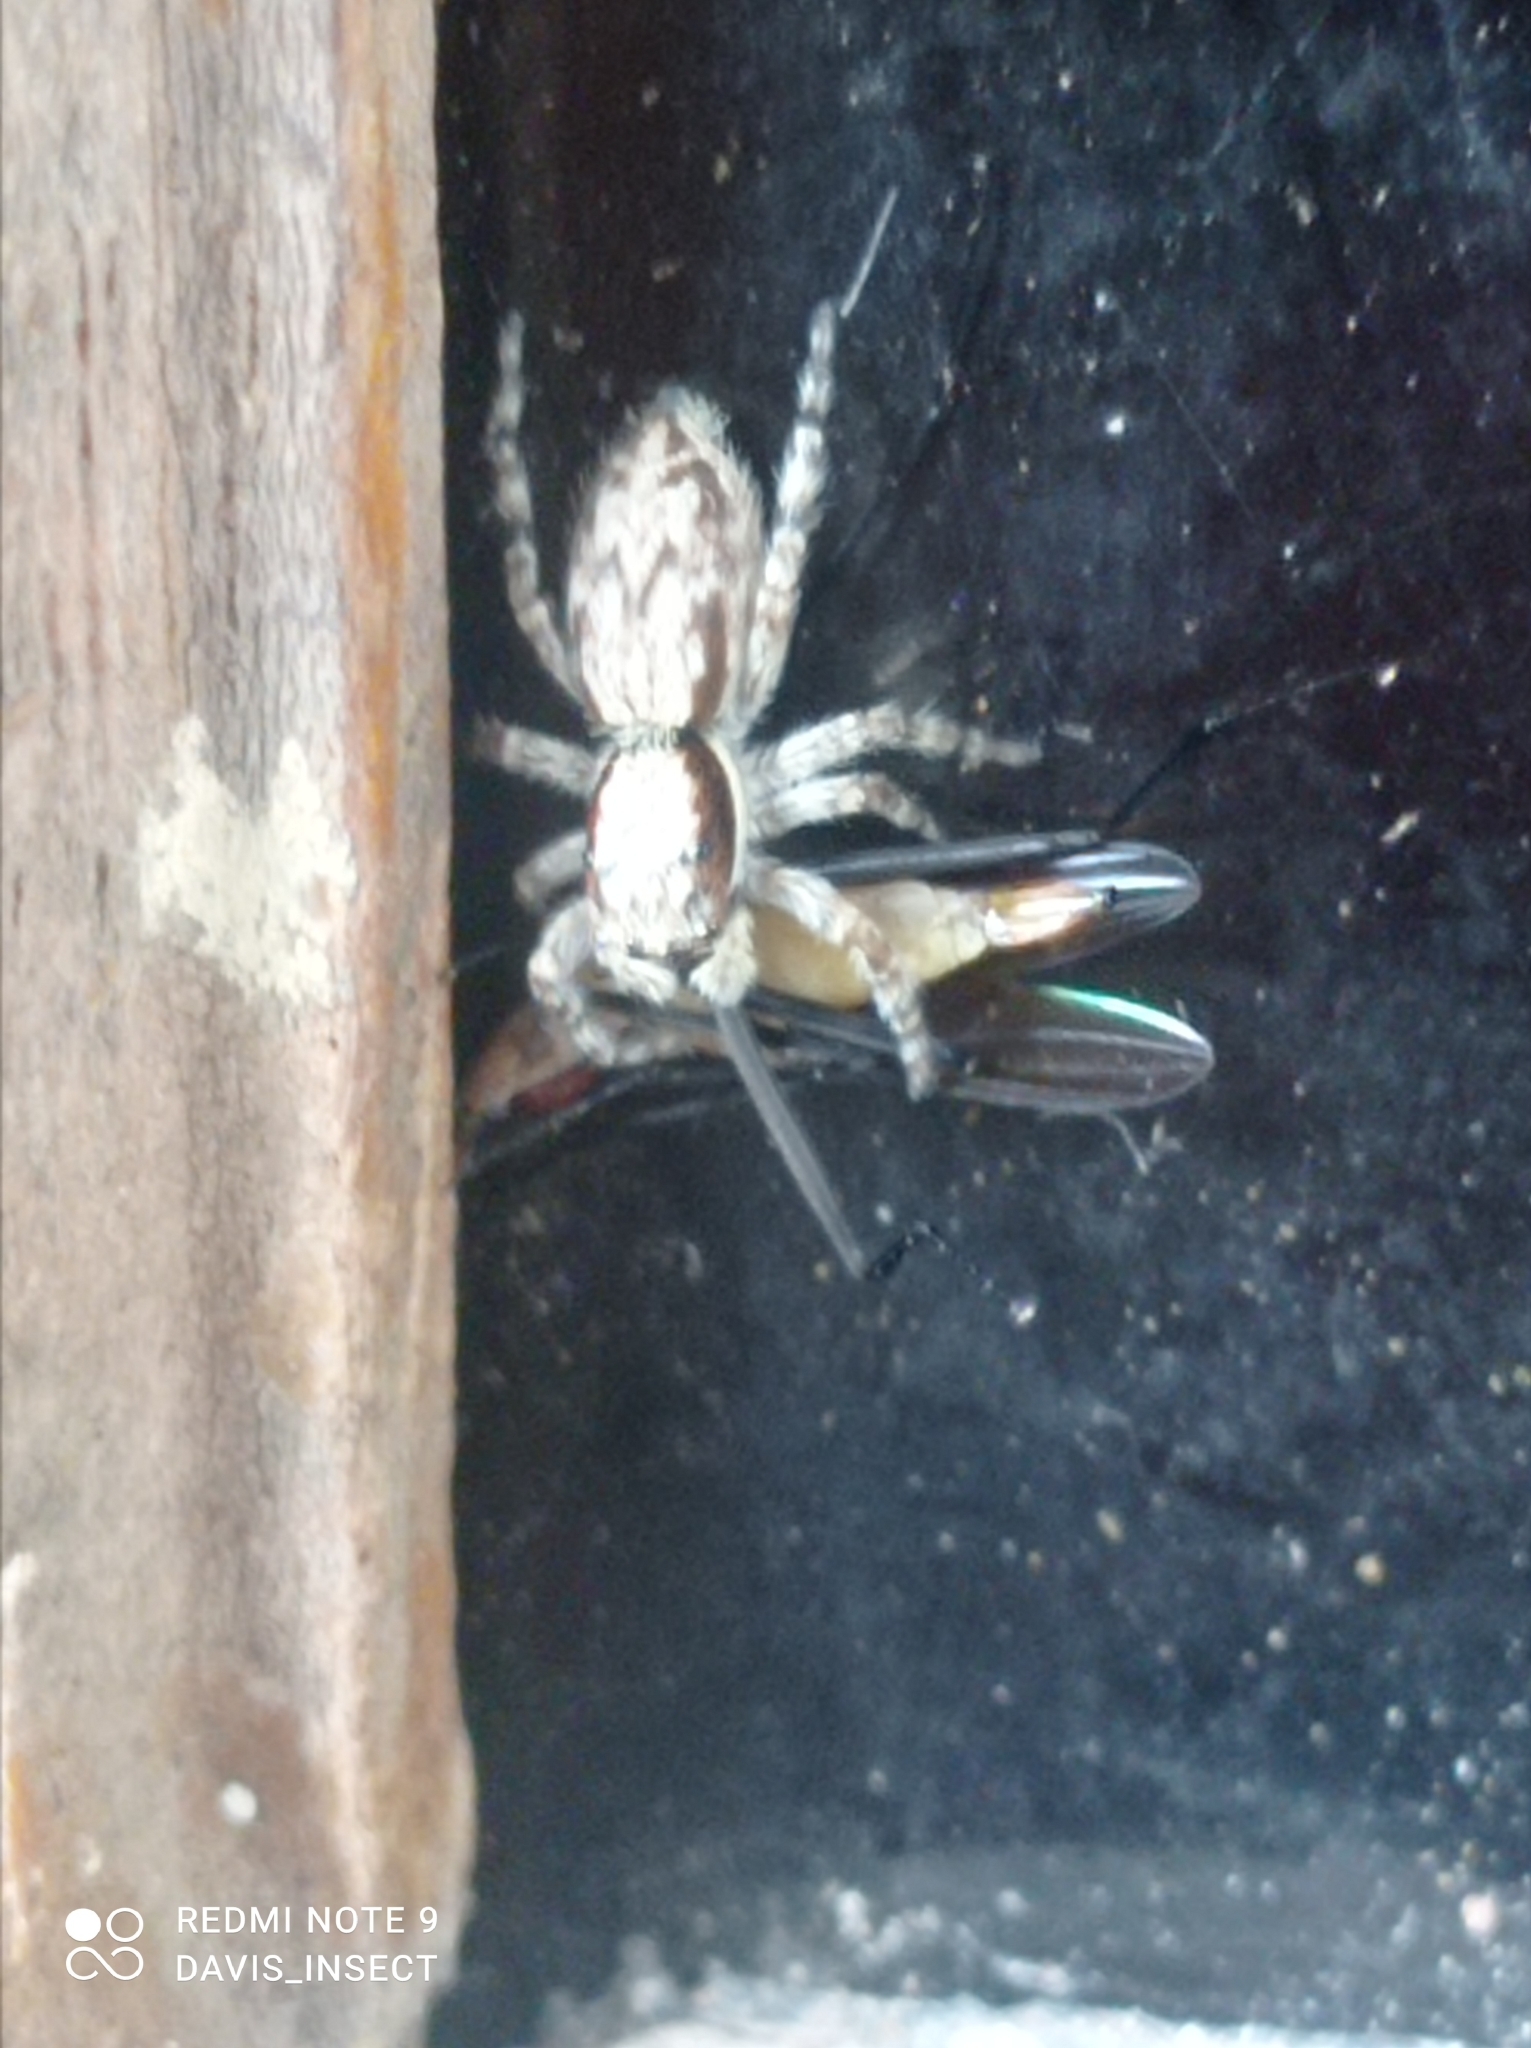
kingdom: Animalia
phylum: Arthropoda
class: Arachnida
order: Araneae
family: Salticidae
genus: Menemerus
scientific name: Menemerus bivittatus
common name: Gray wall jumper
